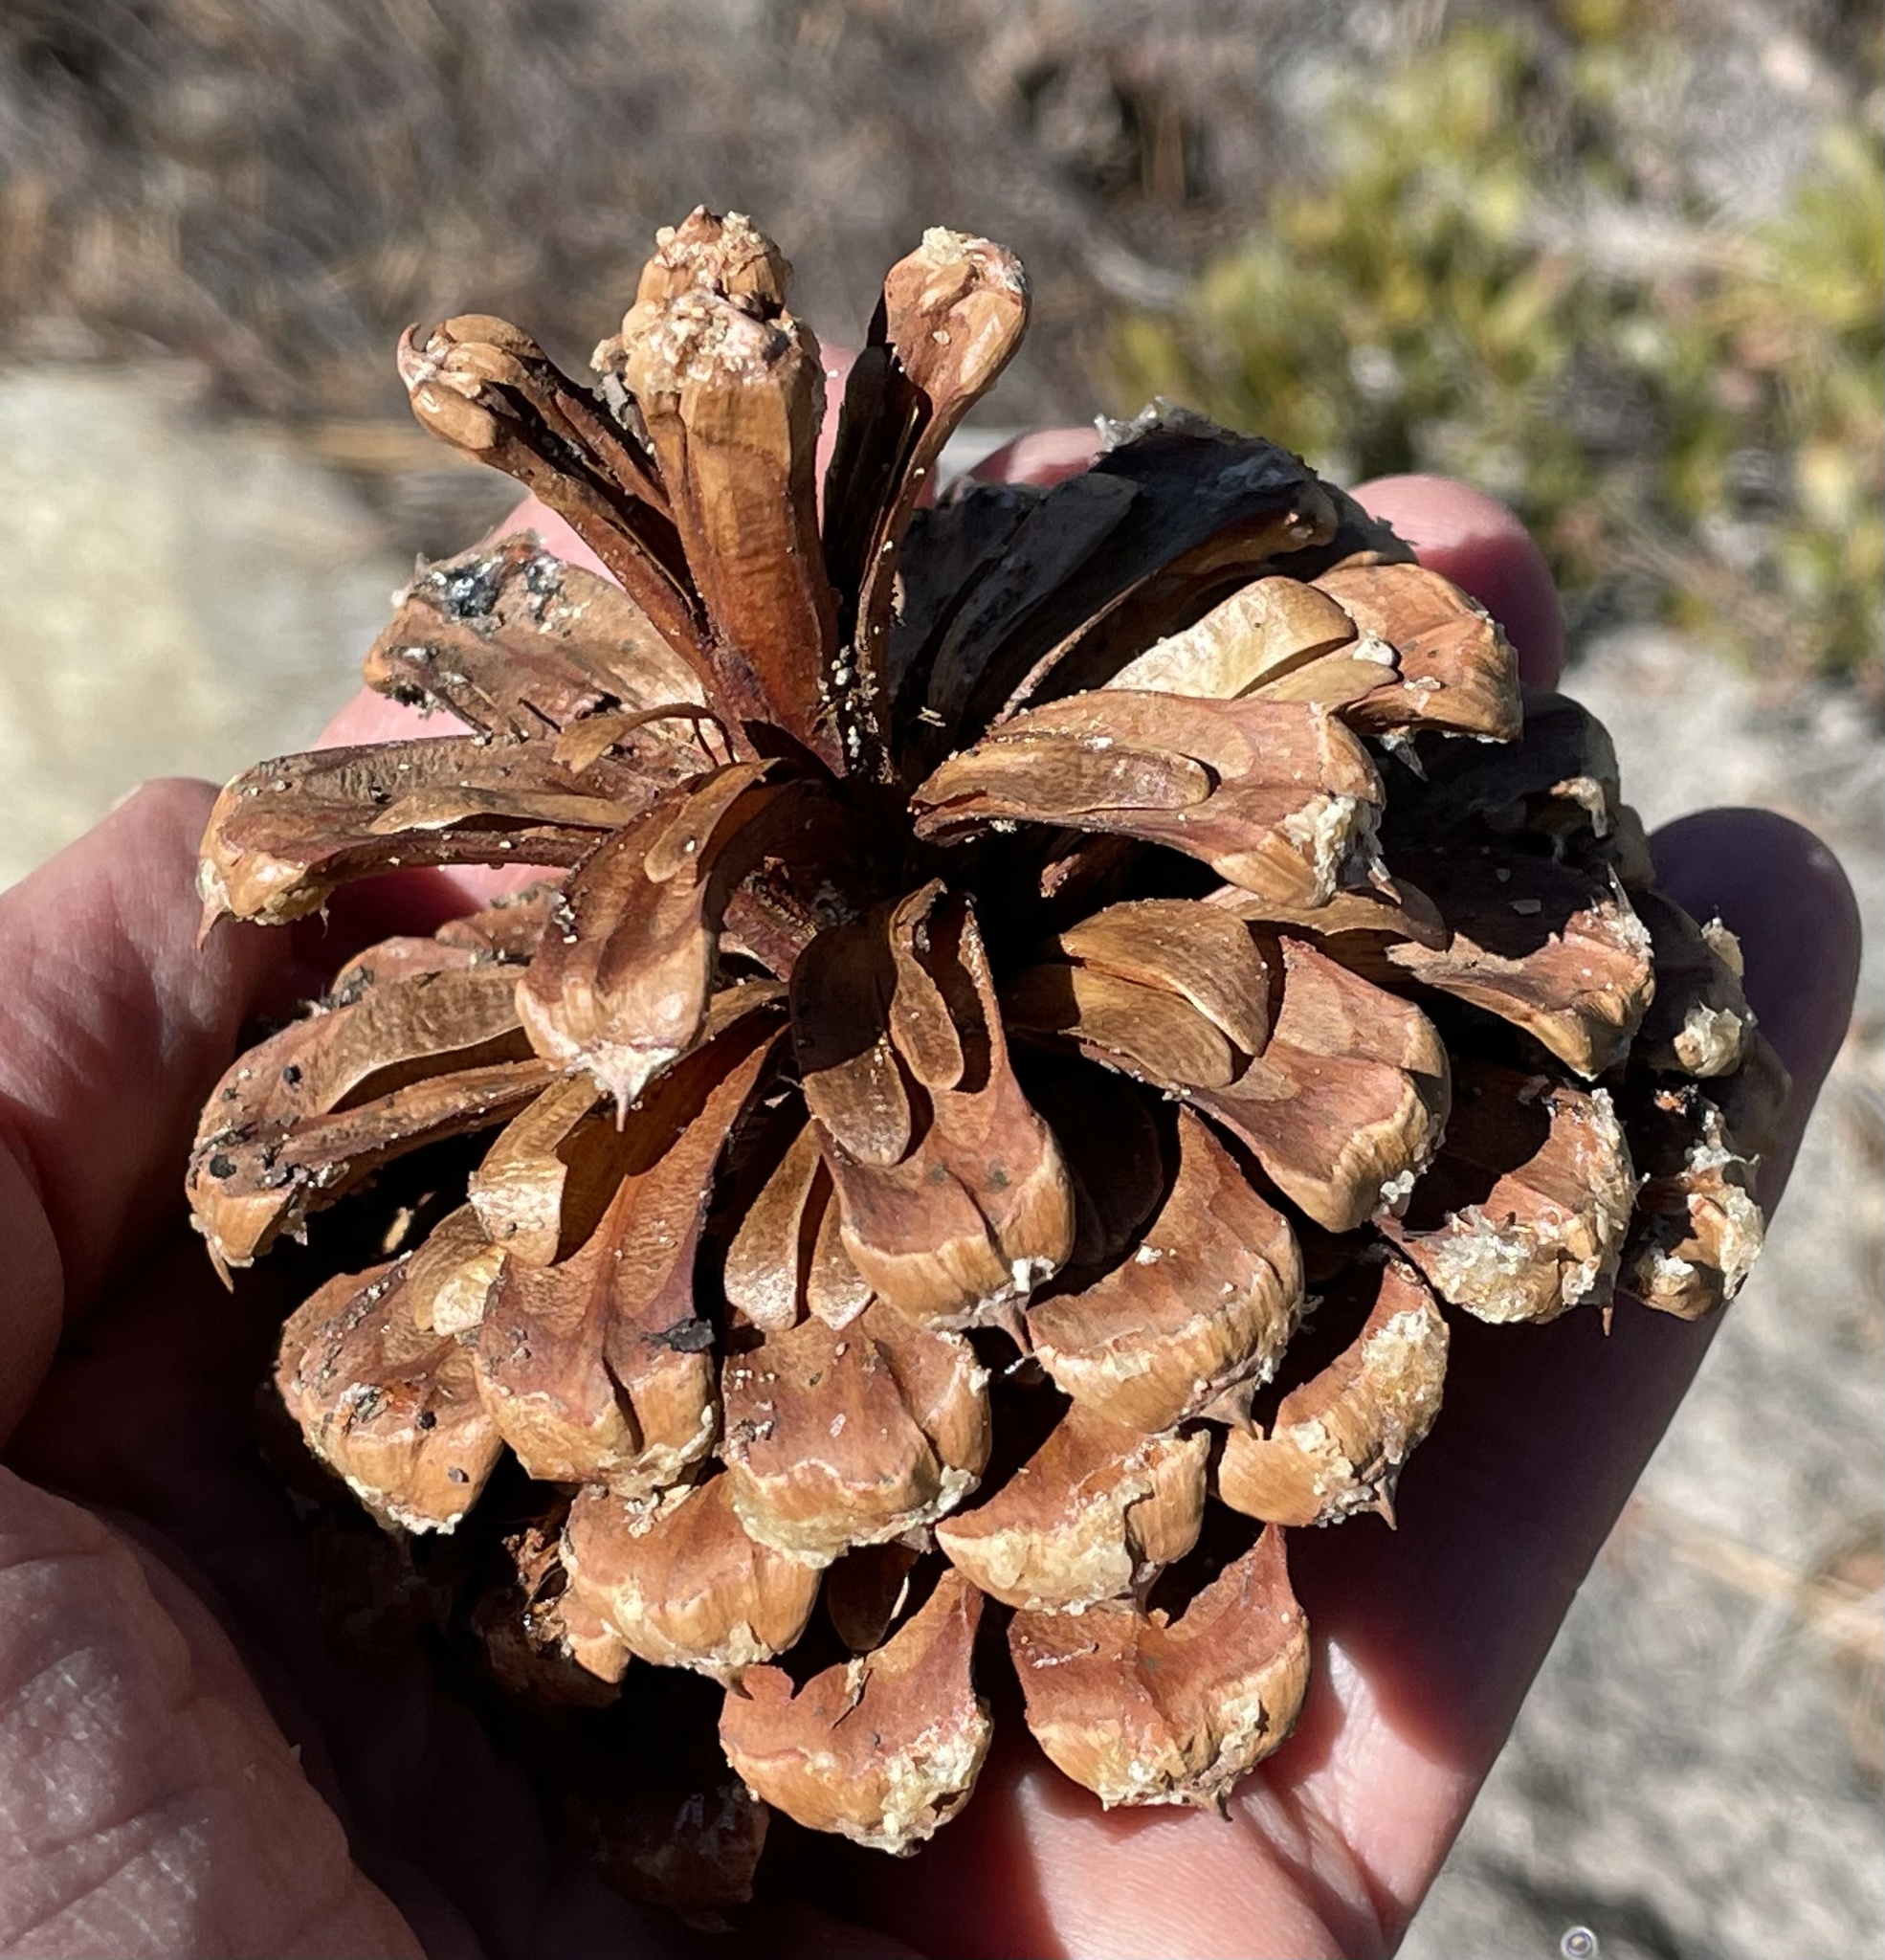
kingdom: Plantae
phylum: Tracheophyta
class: Pinopsida
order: Pinales
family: Pinaceae
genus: Pinus
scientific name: Pinus jeffreyi
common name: Jeffrey pine
